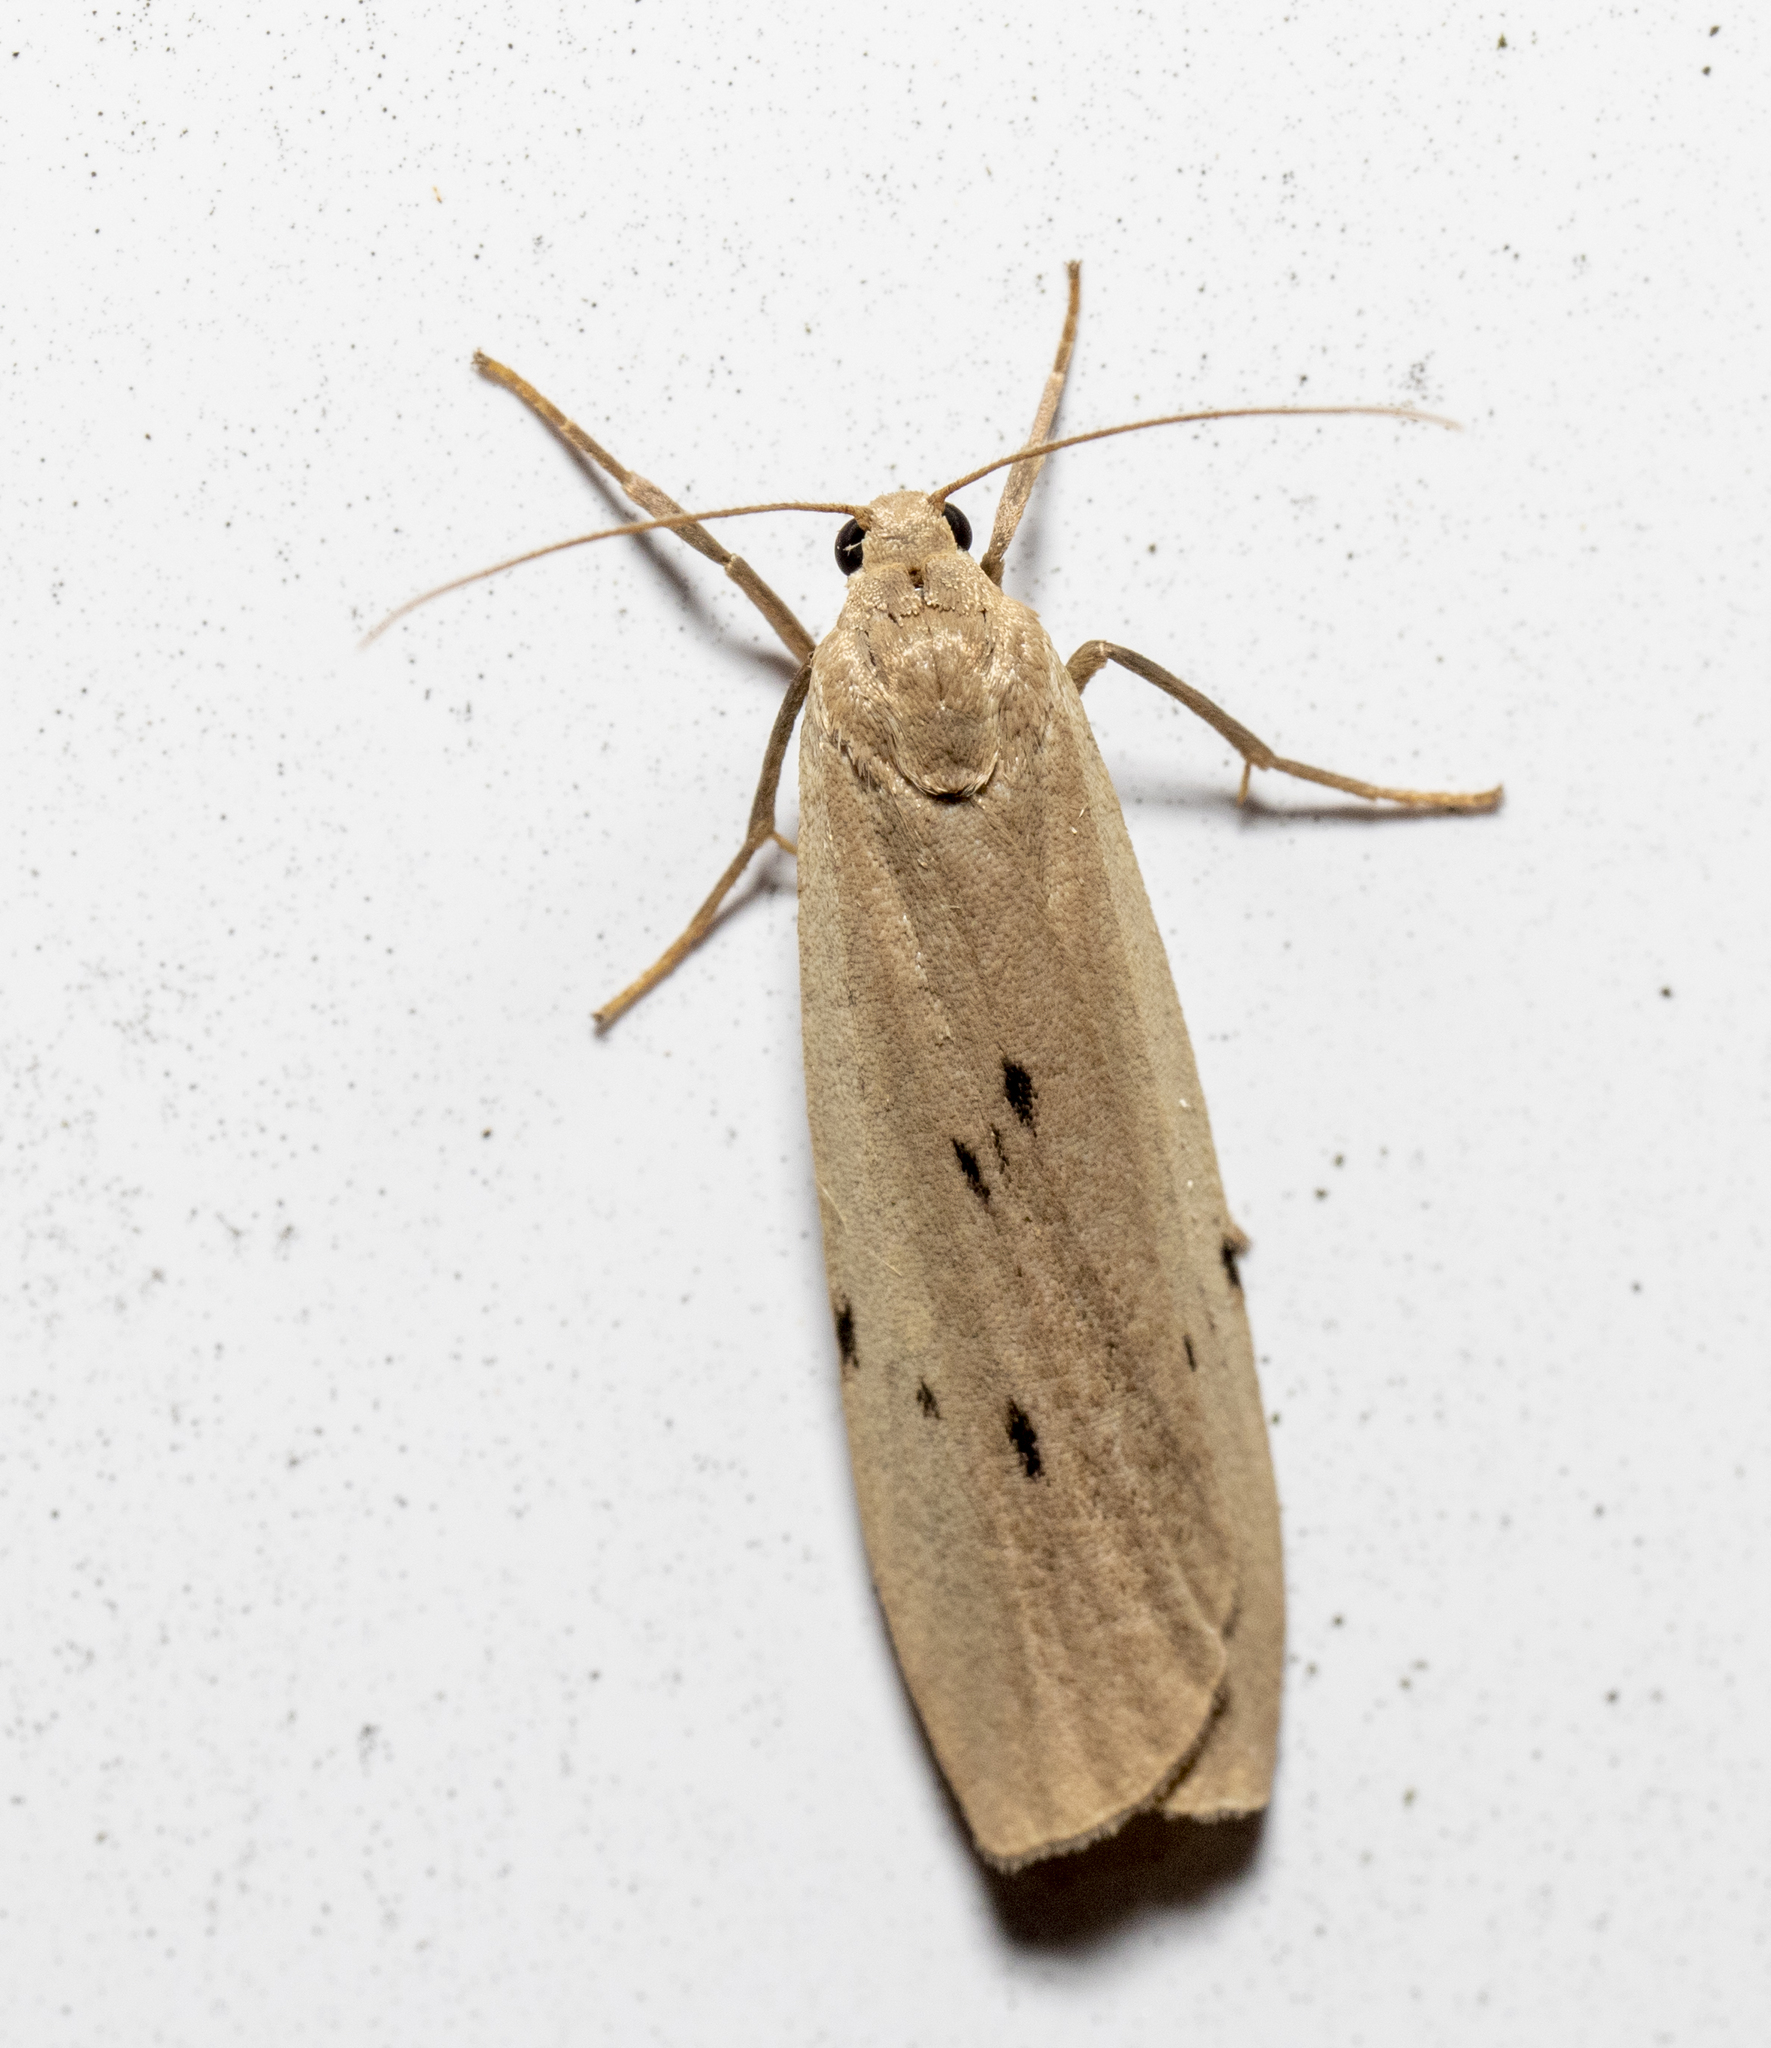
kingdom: Animalia
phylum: Arthropoda
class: Insecta
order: Lepidoptera
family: Erebidae
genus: Pelosia
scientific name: Pelosia muscerda
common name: Dotted footman
